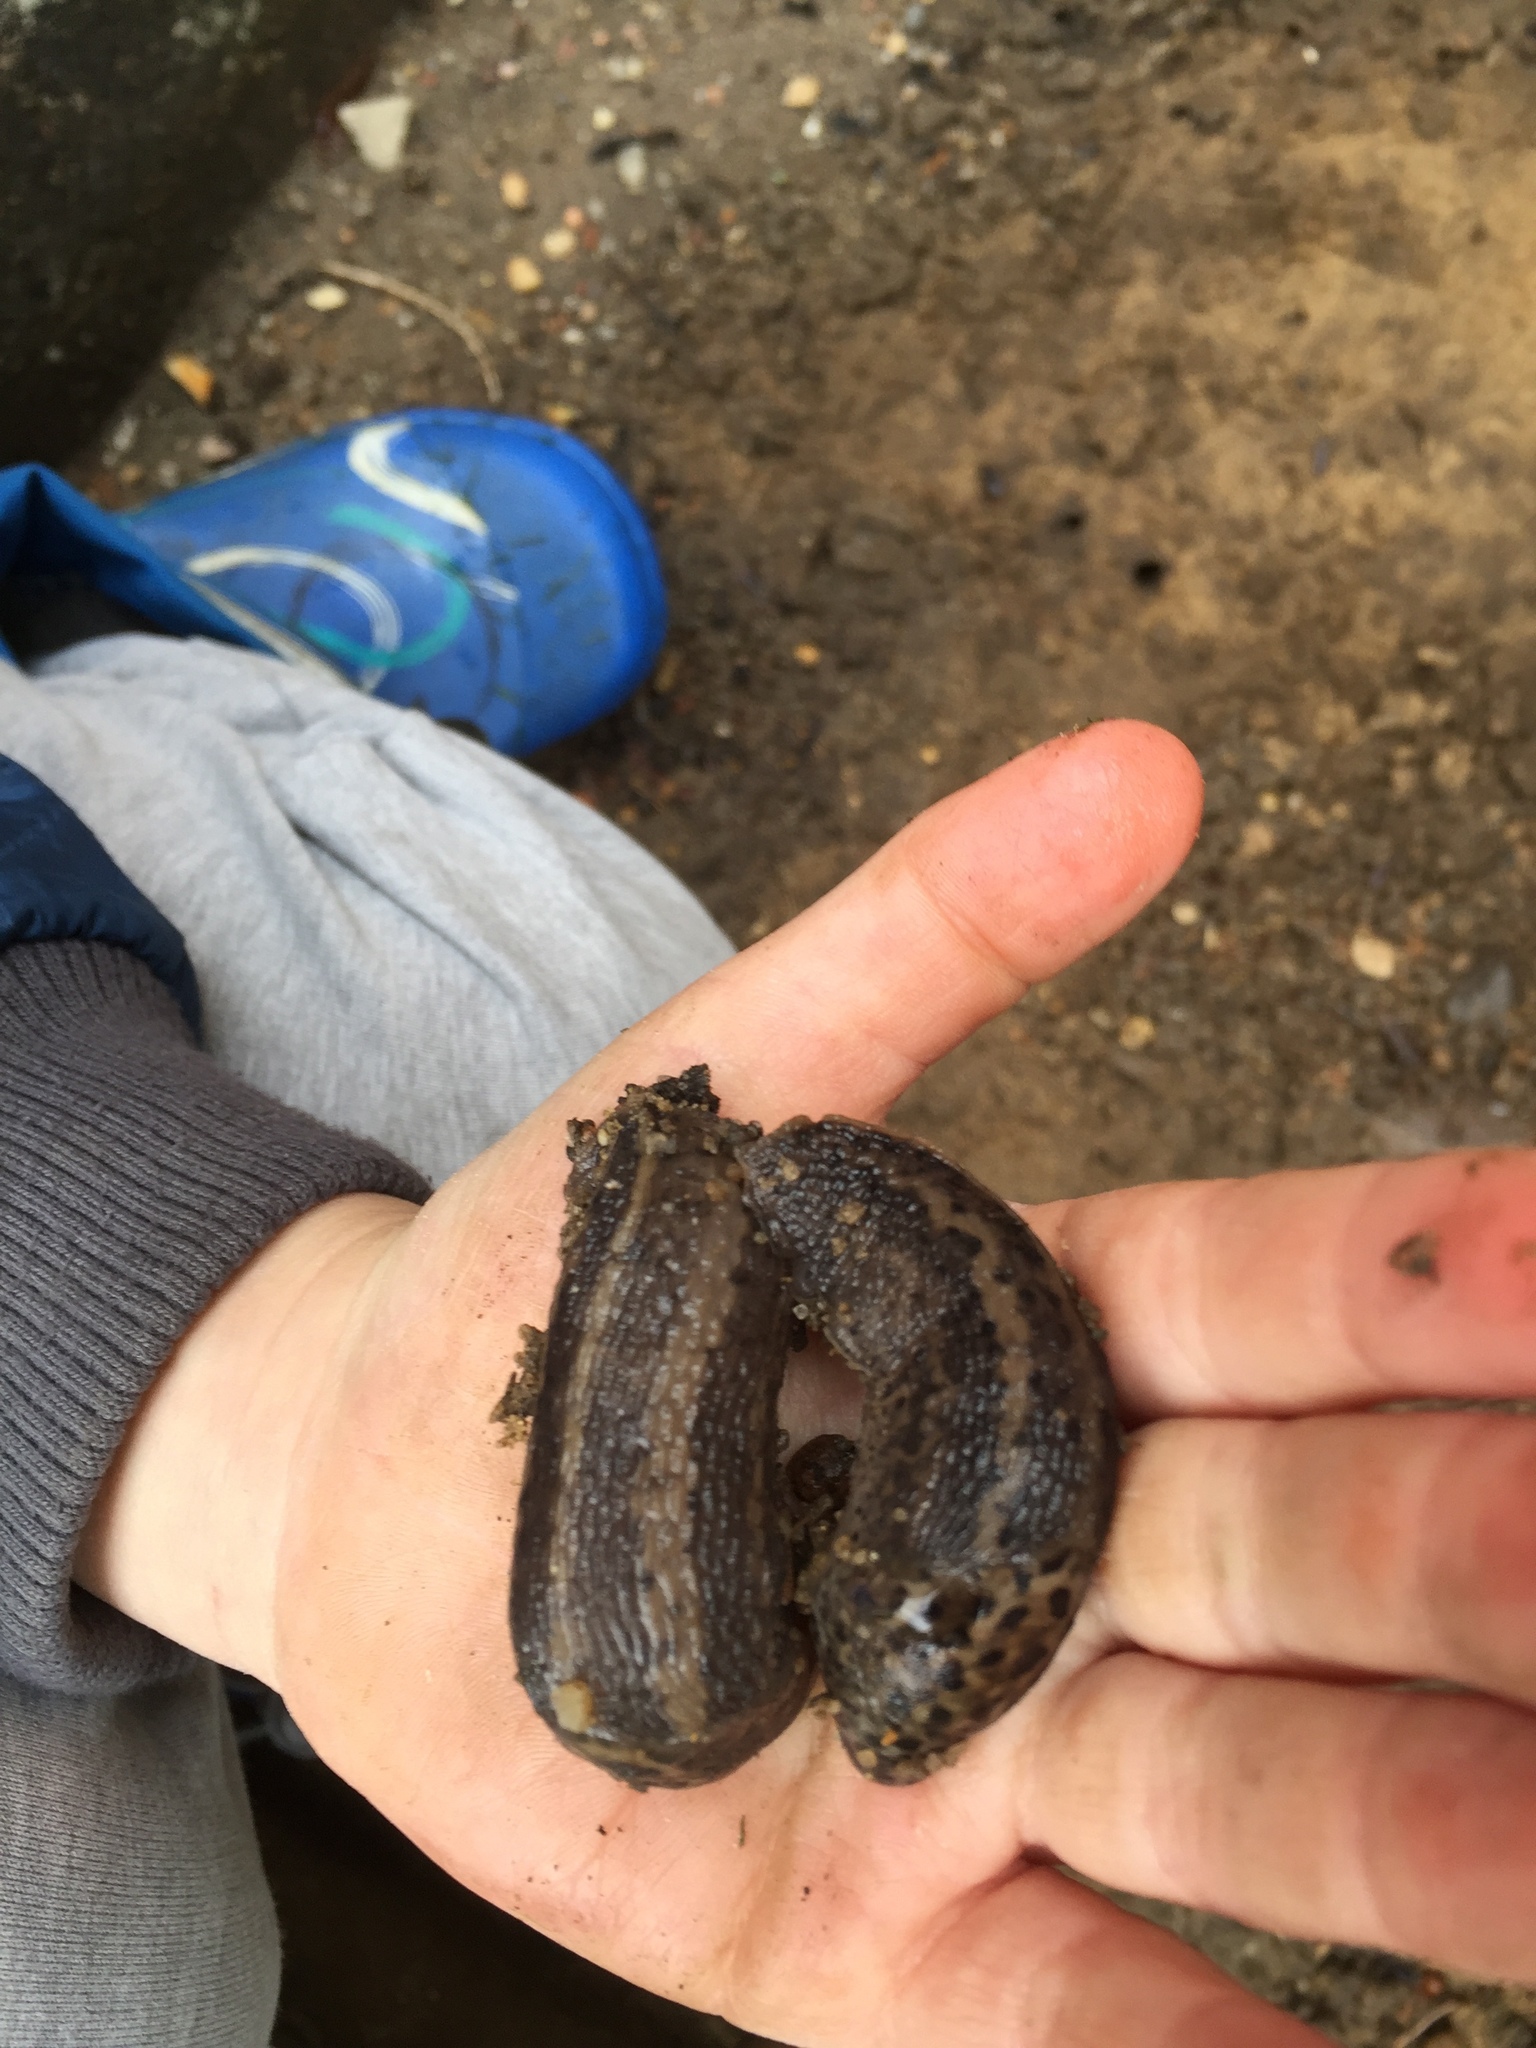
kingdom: Animalia
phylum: Mollusca
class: Gastropoda
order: Stylommatophora
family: Limacidae
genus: Limax
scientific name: Limax maximus
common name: Great grey slug
